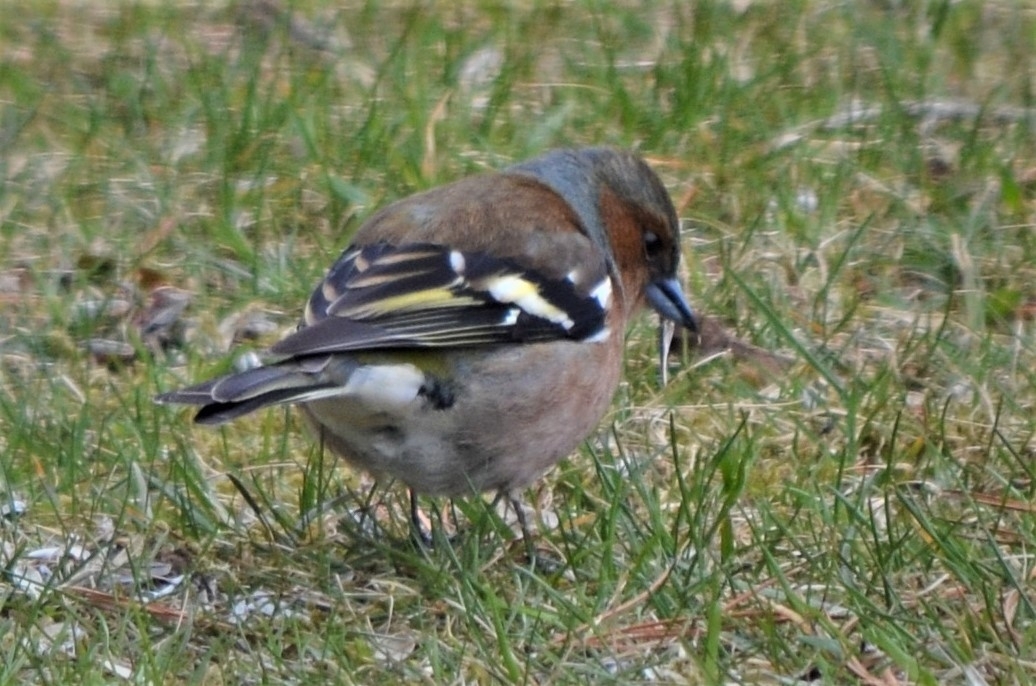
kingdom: Animalia
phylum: Chordata
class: Aves
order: Passeriformes
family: Fringillidae
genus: Fringilla
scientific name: Fringilla coelebs
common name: Common chaffinch
